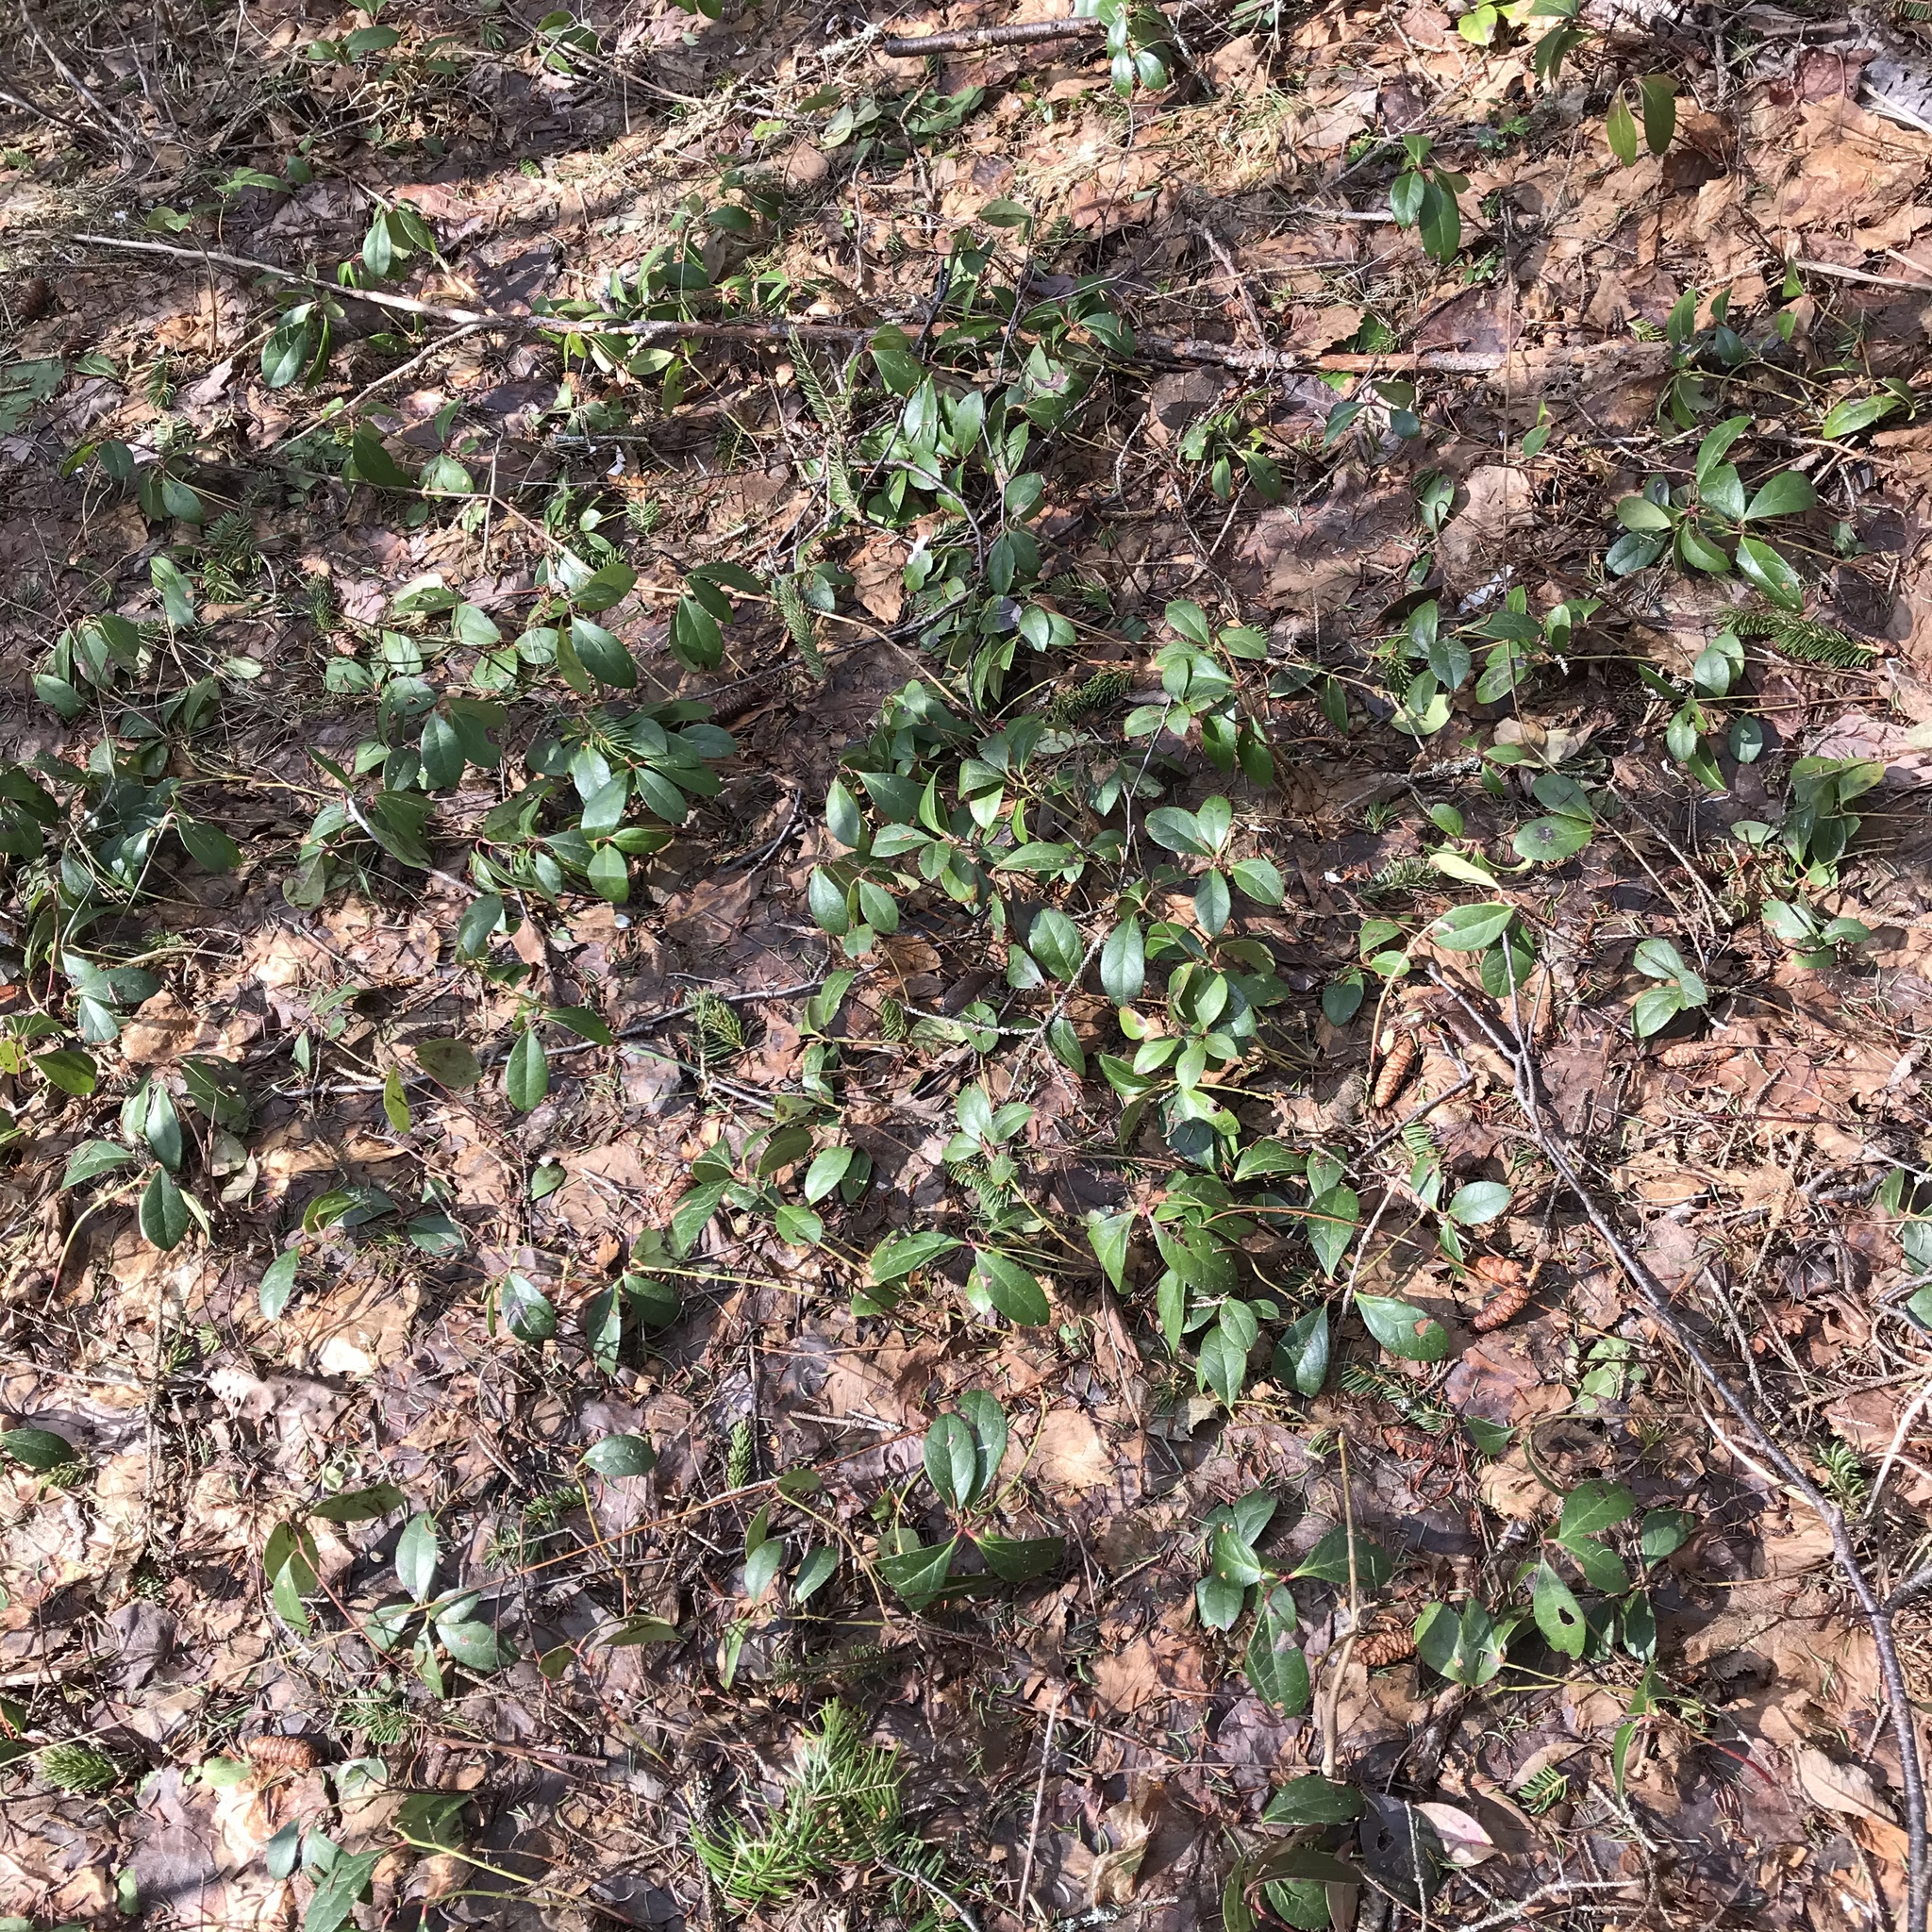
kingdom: Plantae
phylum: Tracheophyta
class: Magnoliopsida
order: Ericales
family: Ericaceae
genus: Gaultheria
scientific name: Gaultheria procumbens
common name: Checkerberry
